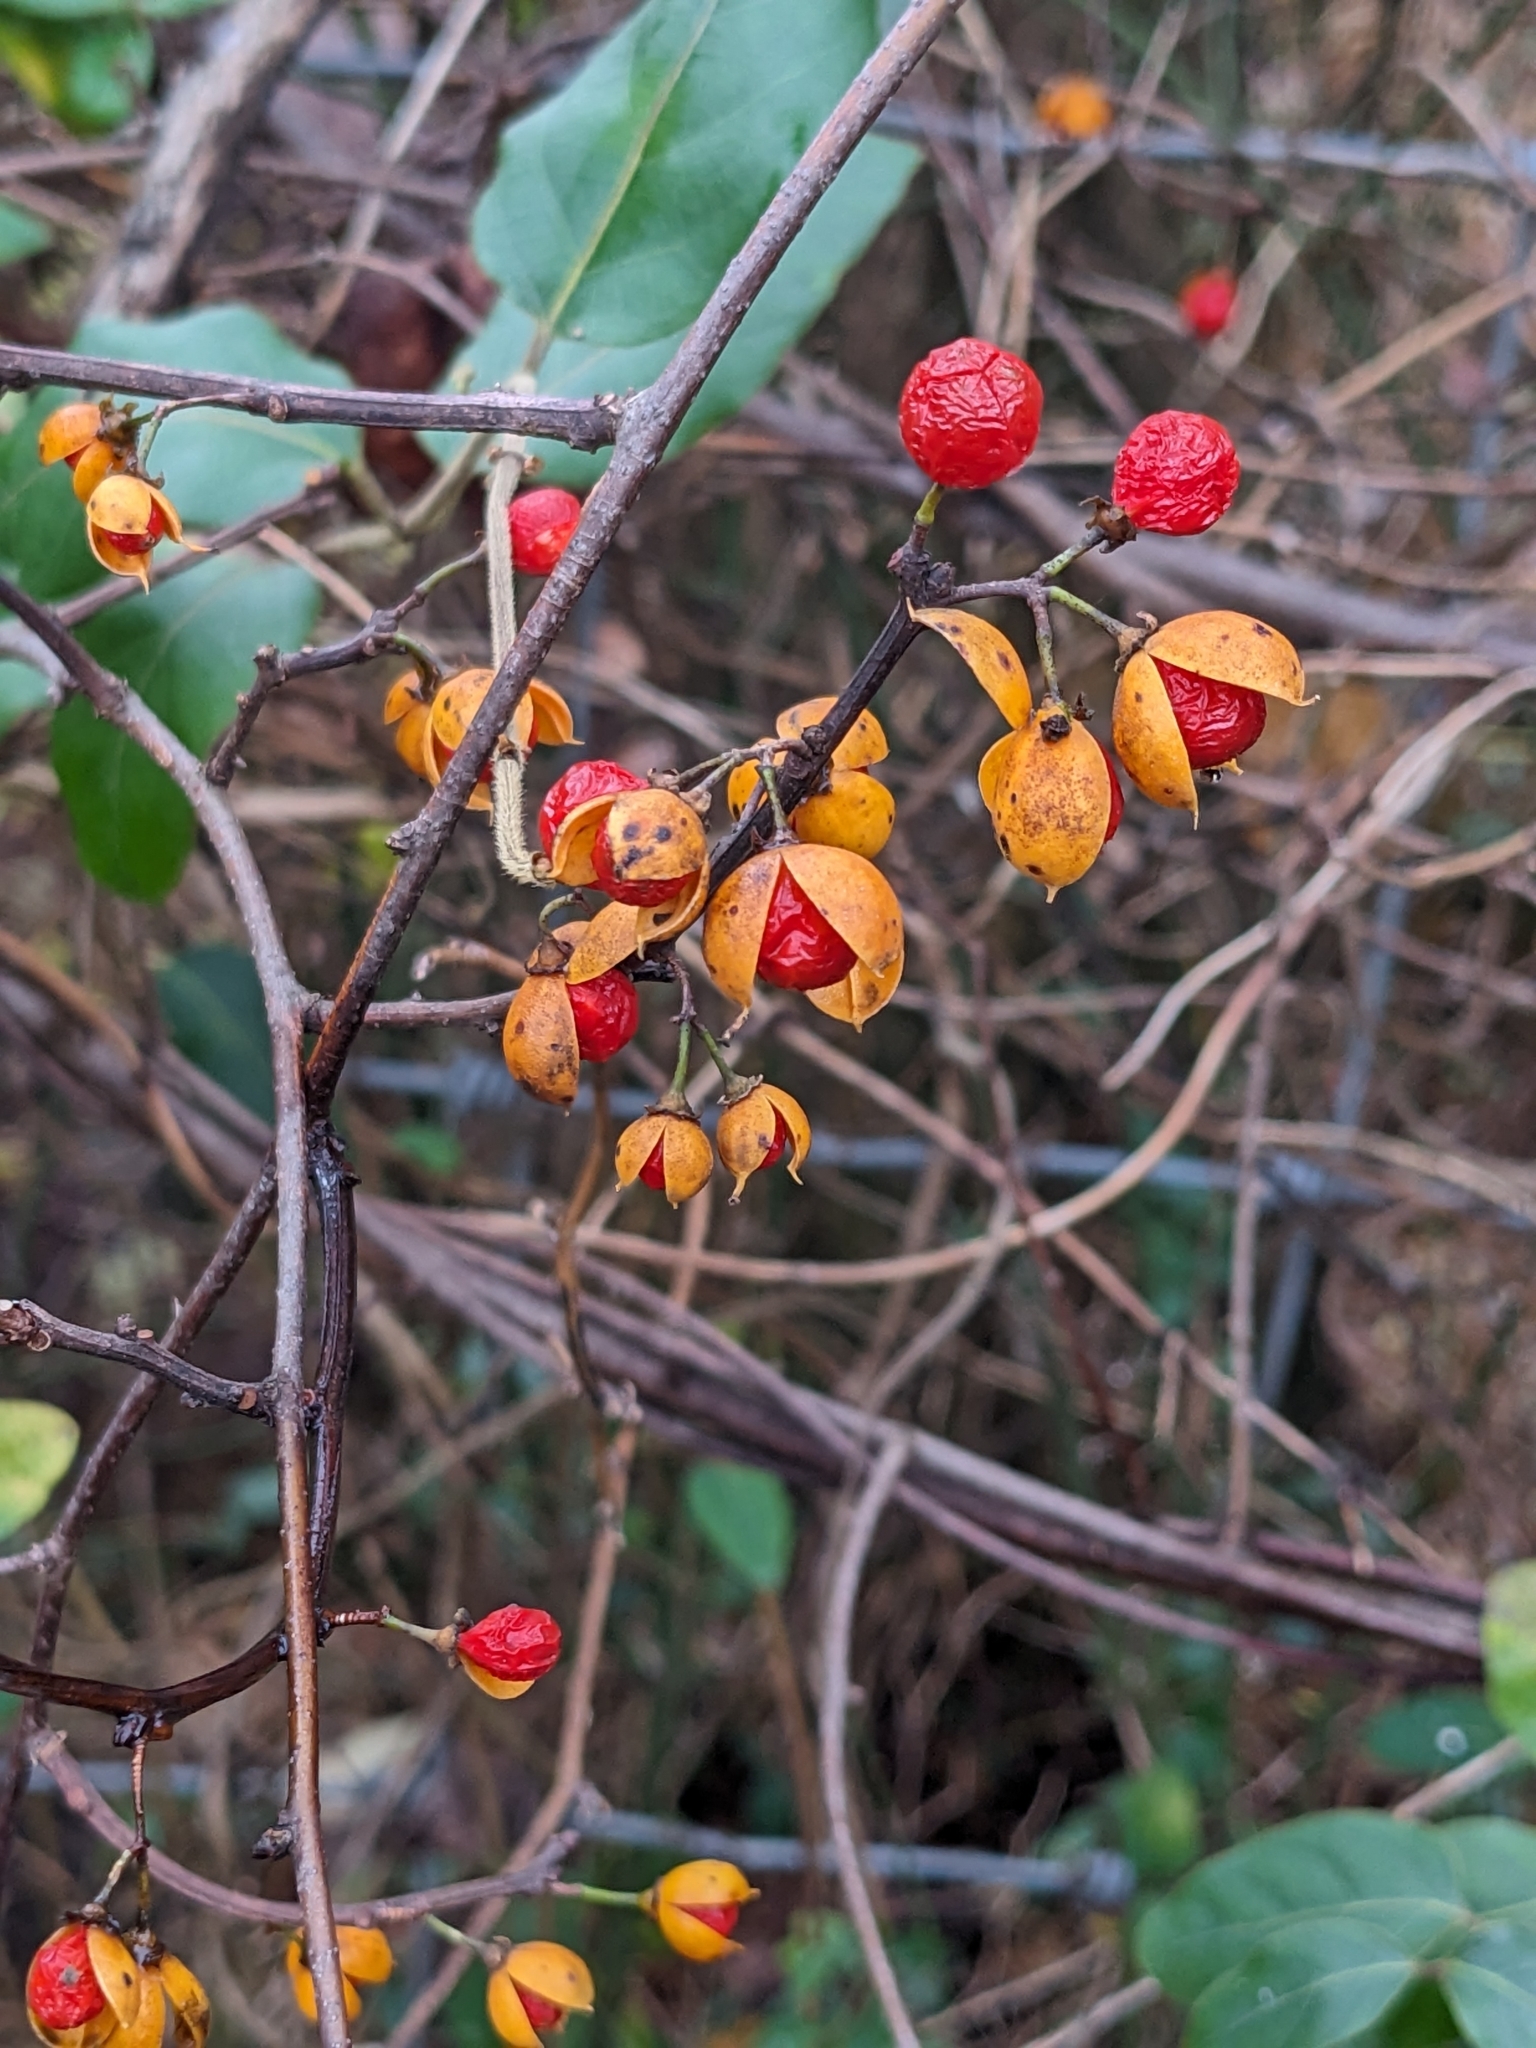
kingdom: Plantae
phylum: Tracheophyta
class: Magnoliopsida
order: Celastrales
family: Celastraceae
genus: Celastrus
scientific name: Celastrus orbiculatus
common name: Oriental bittersweet
